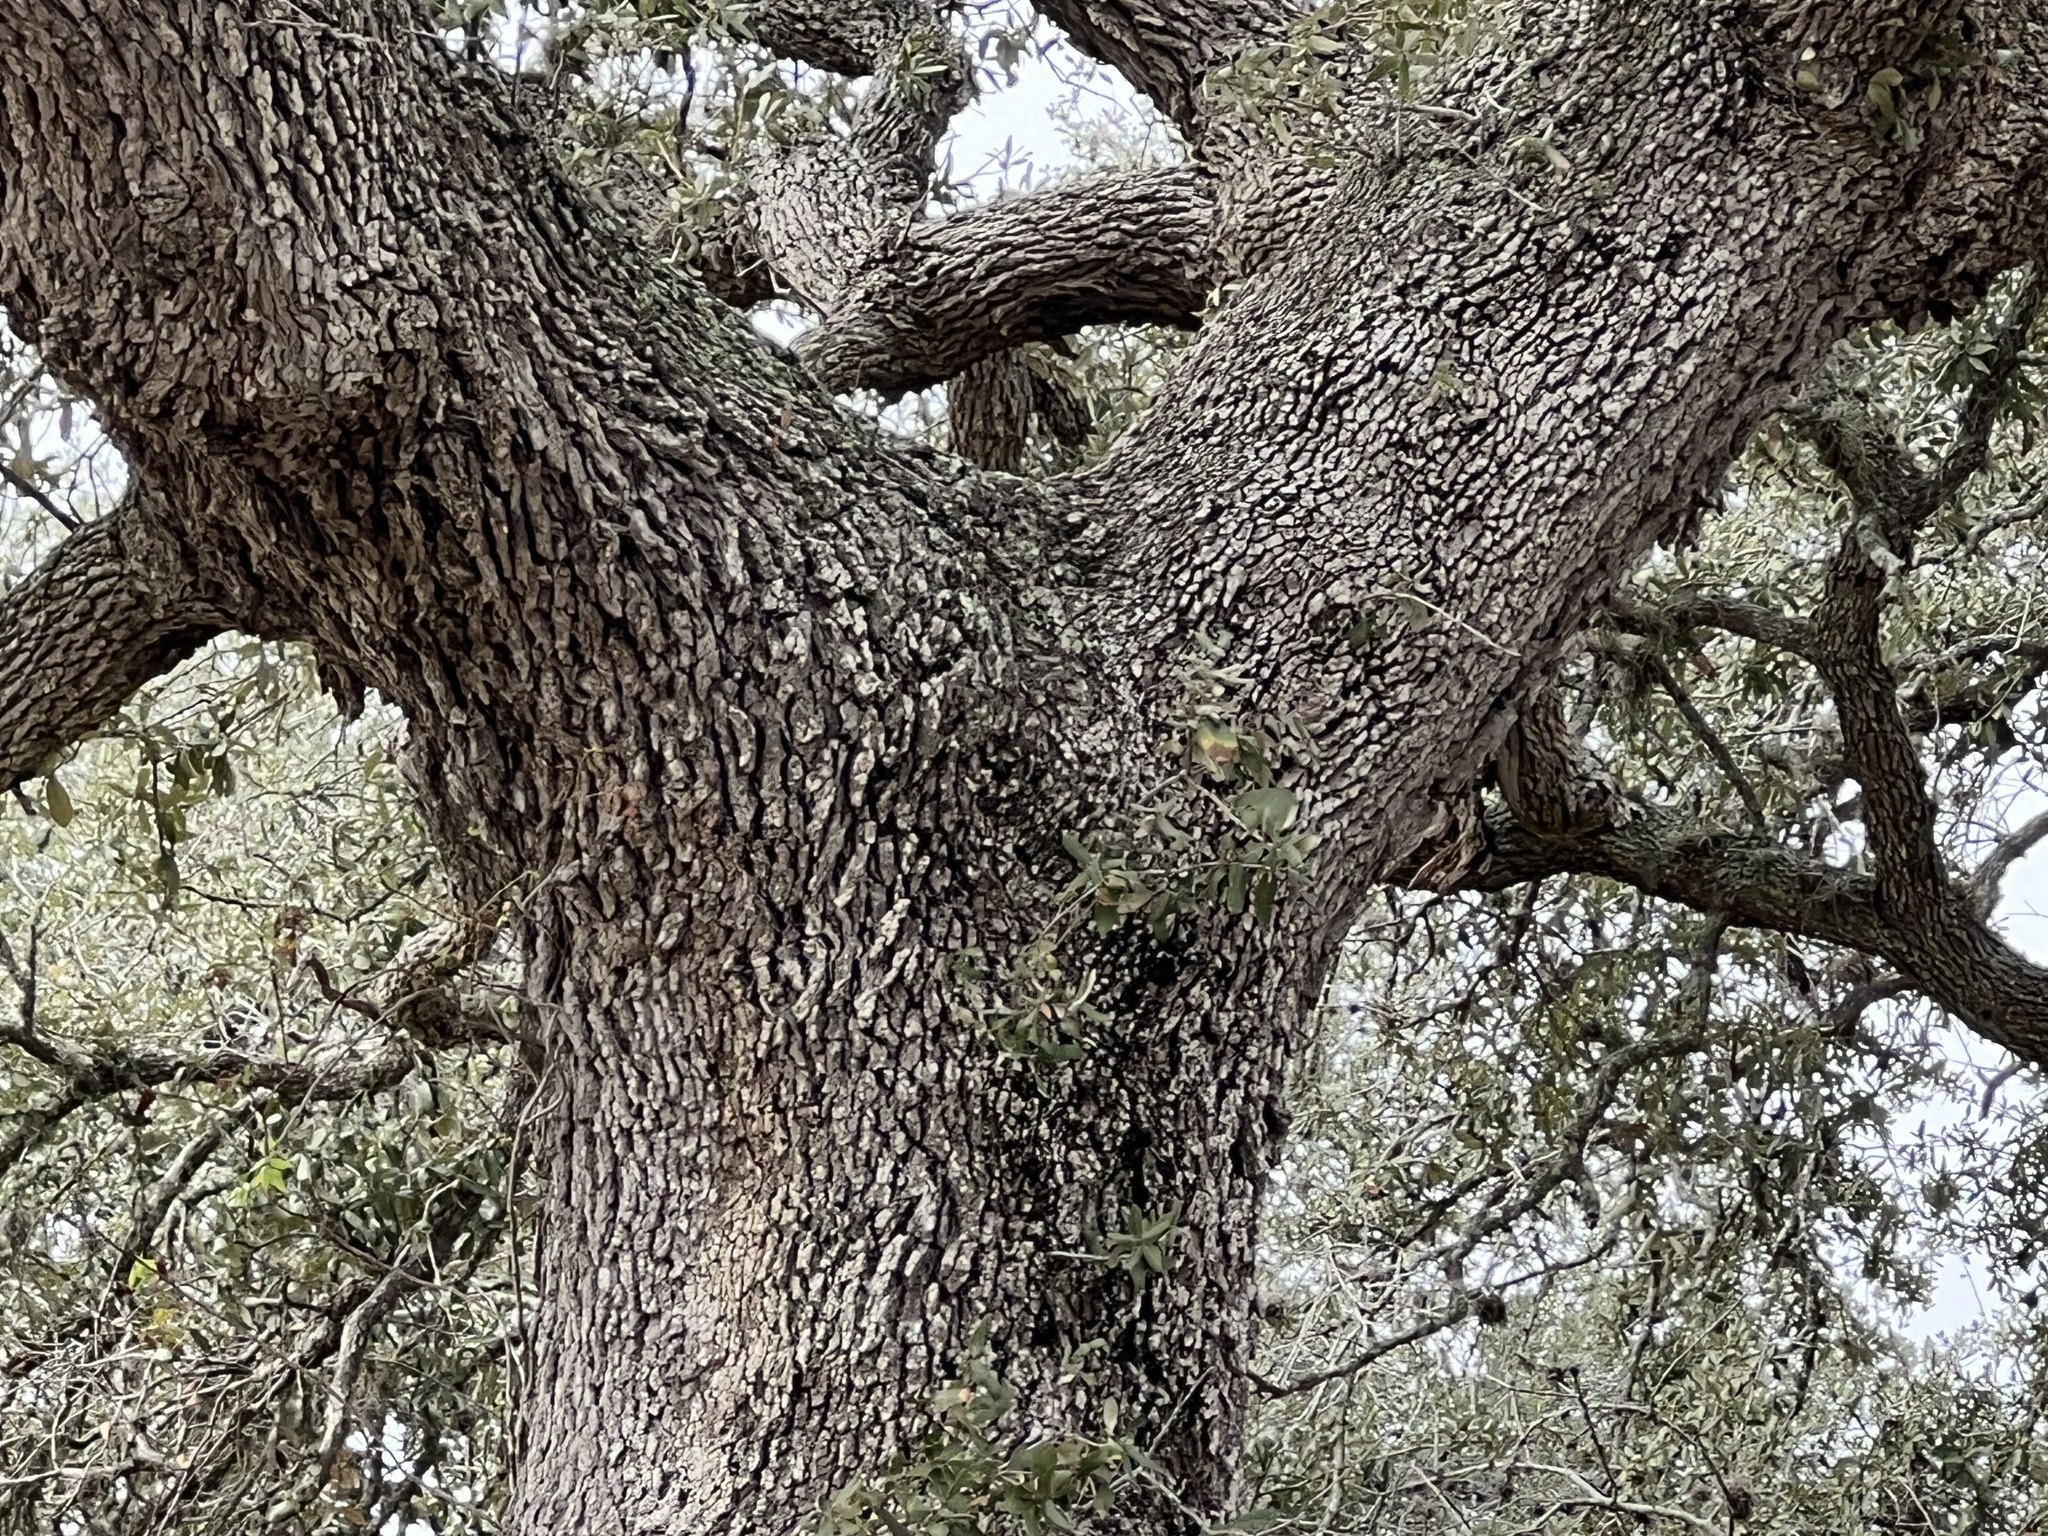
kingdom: Plantae
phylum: Tracheophyta
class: Magnoliopsida
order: Fagales
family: Fagaceae
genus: Quercus
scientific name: Quercus fusiformis
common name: Texas live oak
